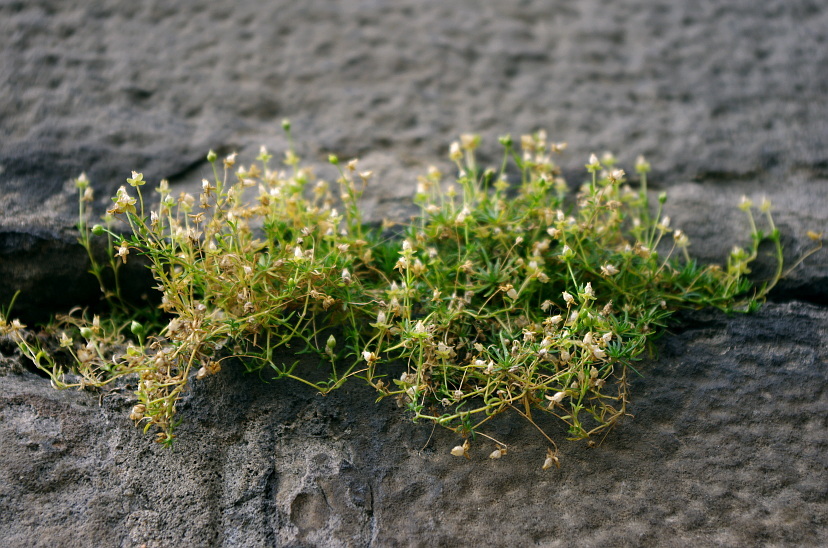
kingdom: Plantae
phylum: Tracheophyta
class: Magnoliopsida
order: Caryophyllales
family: Caryophyllaceae
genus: Sagina
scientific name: Sagina procumbens
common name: Procumbent pearlwort
